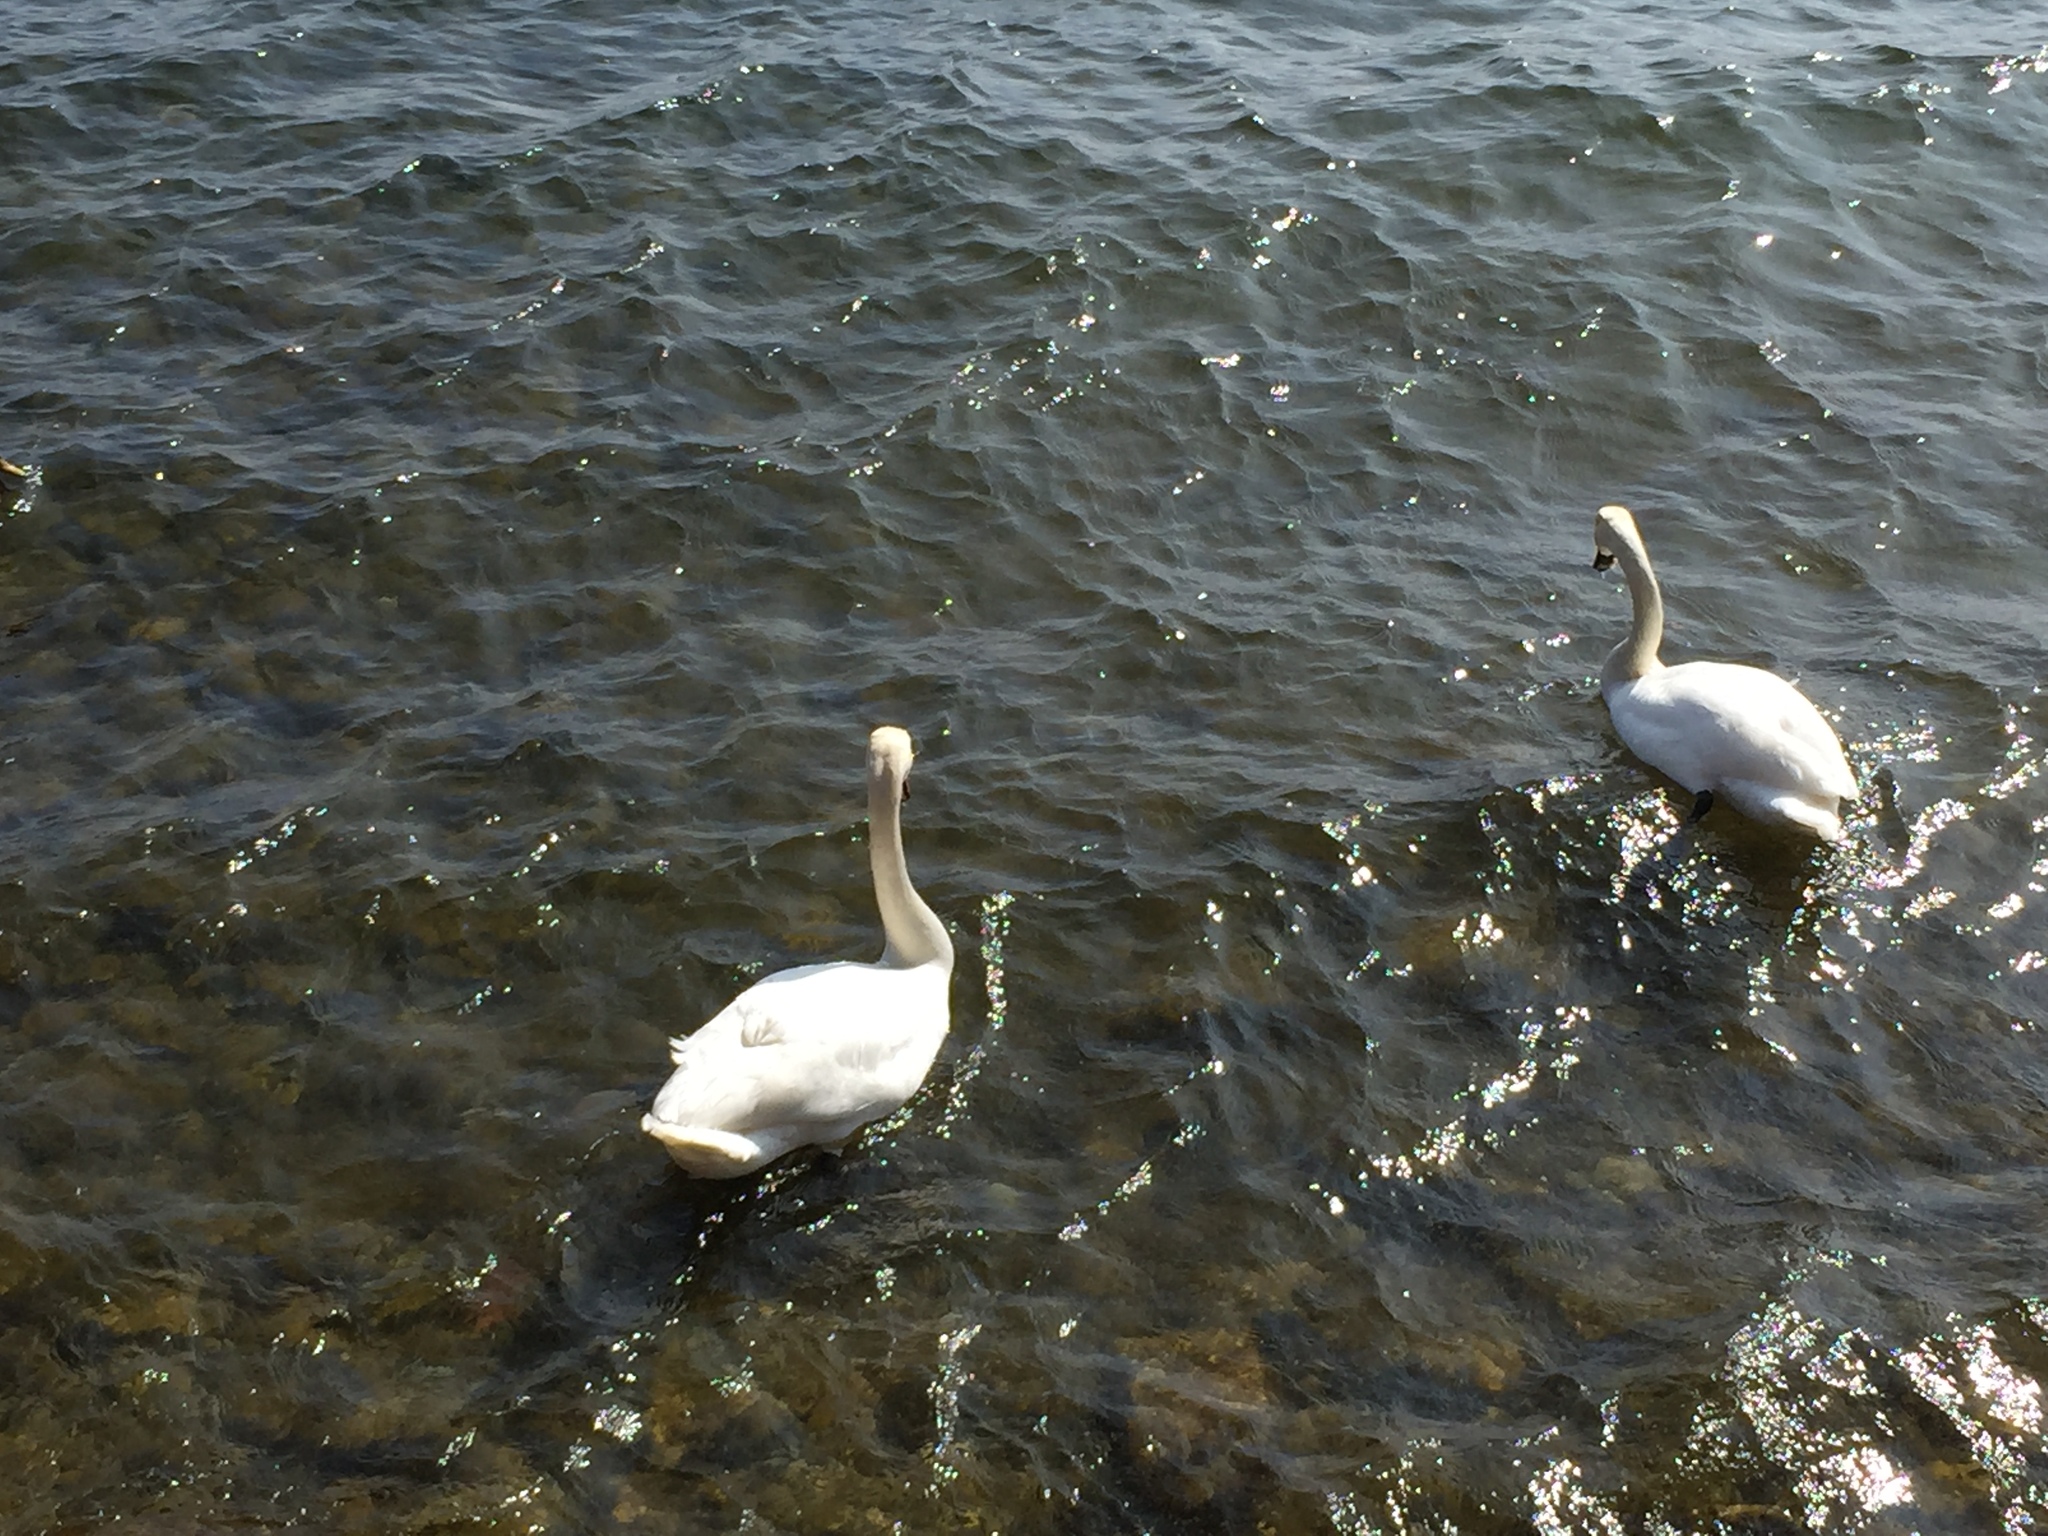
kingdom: Animalia
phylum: Chordata
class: Aves
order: Anseriformes
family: Anatidae
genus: Cygnus
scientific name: Cygnus olor
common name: Mute swan
